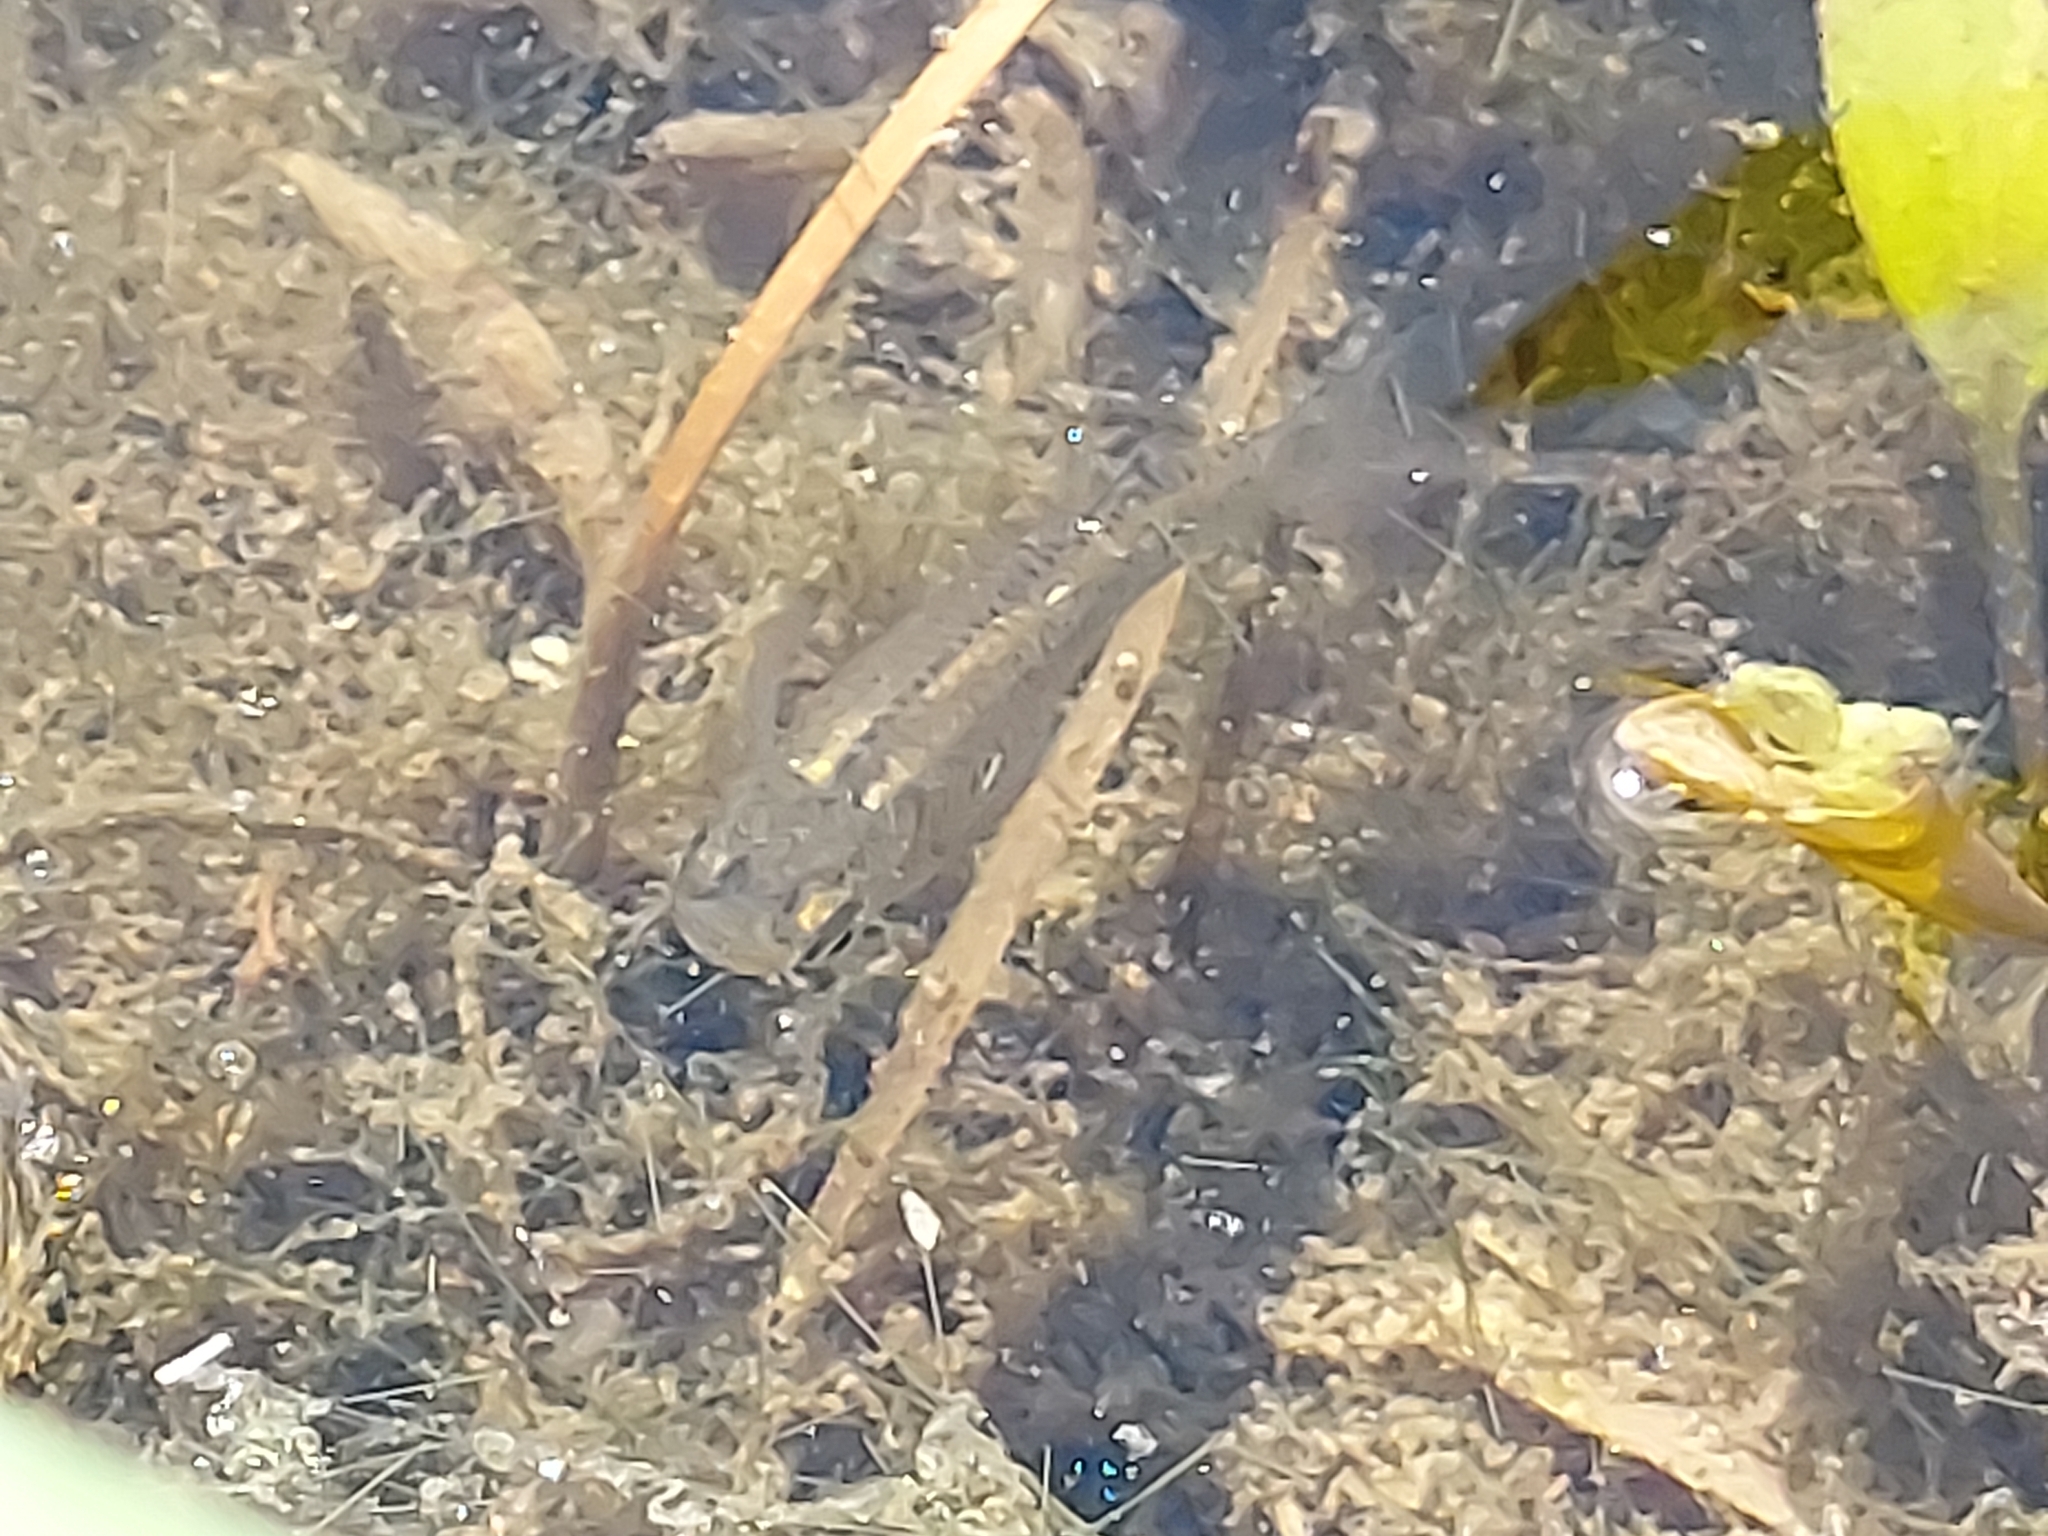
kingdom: Animalia
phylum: Chordata
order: Cyprinodontiformes
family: Poeciliidae
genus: Gambusia
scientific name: Gambusia affinis
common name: Mosquitofish
